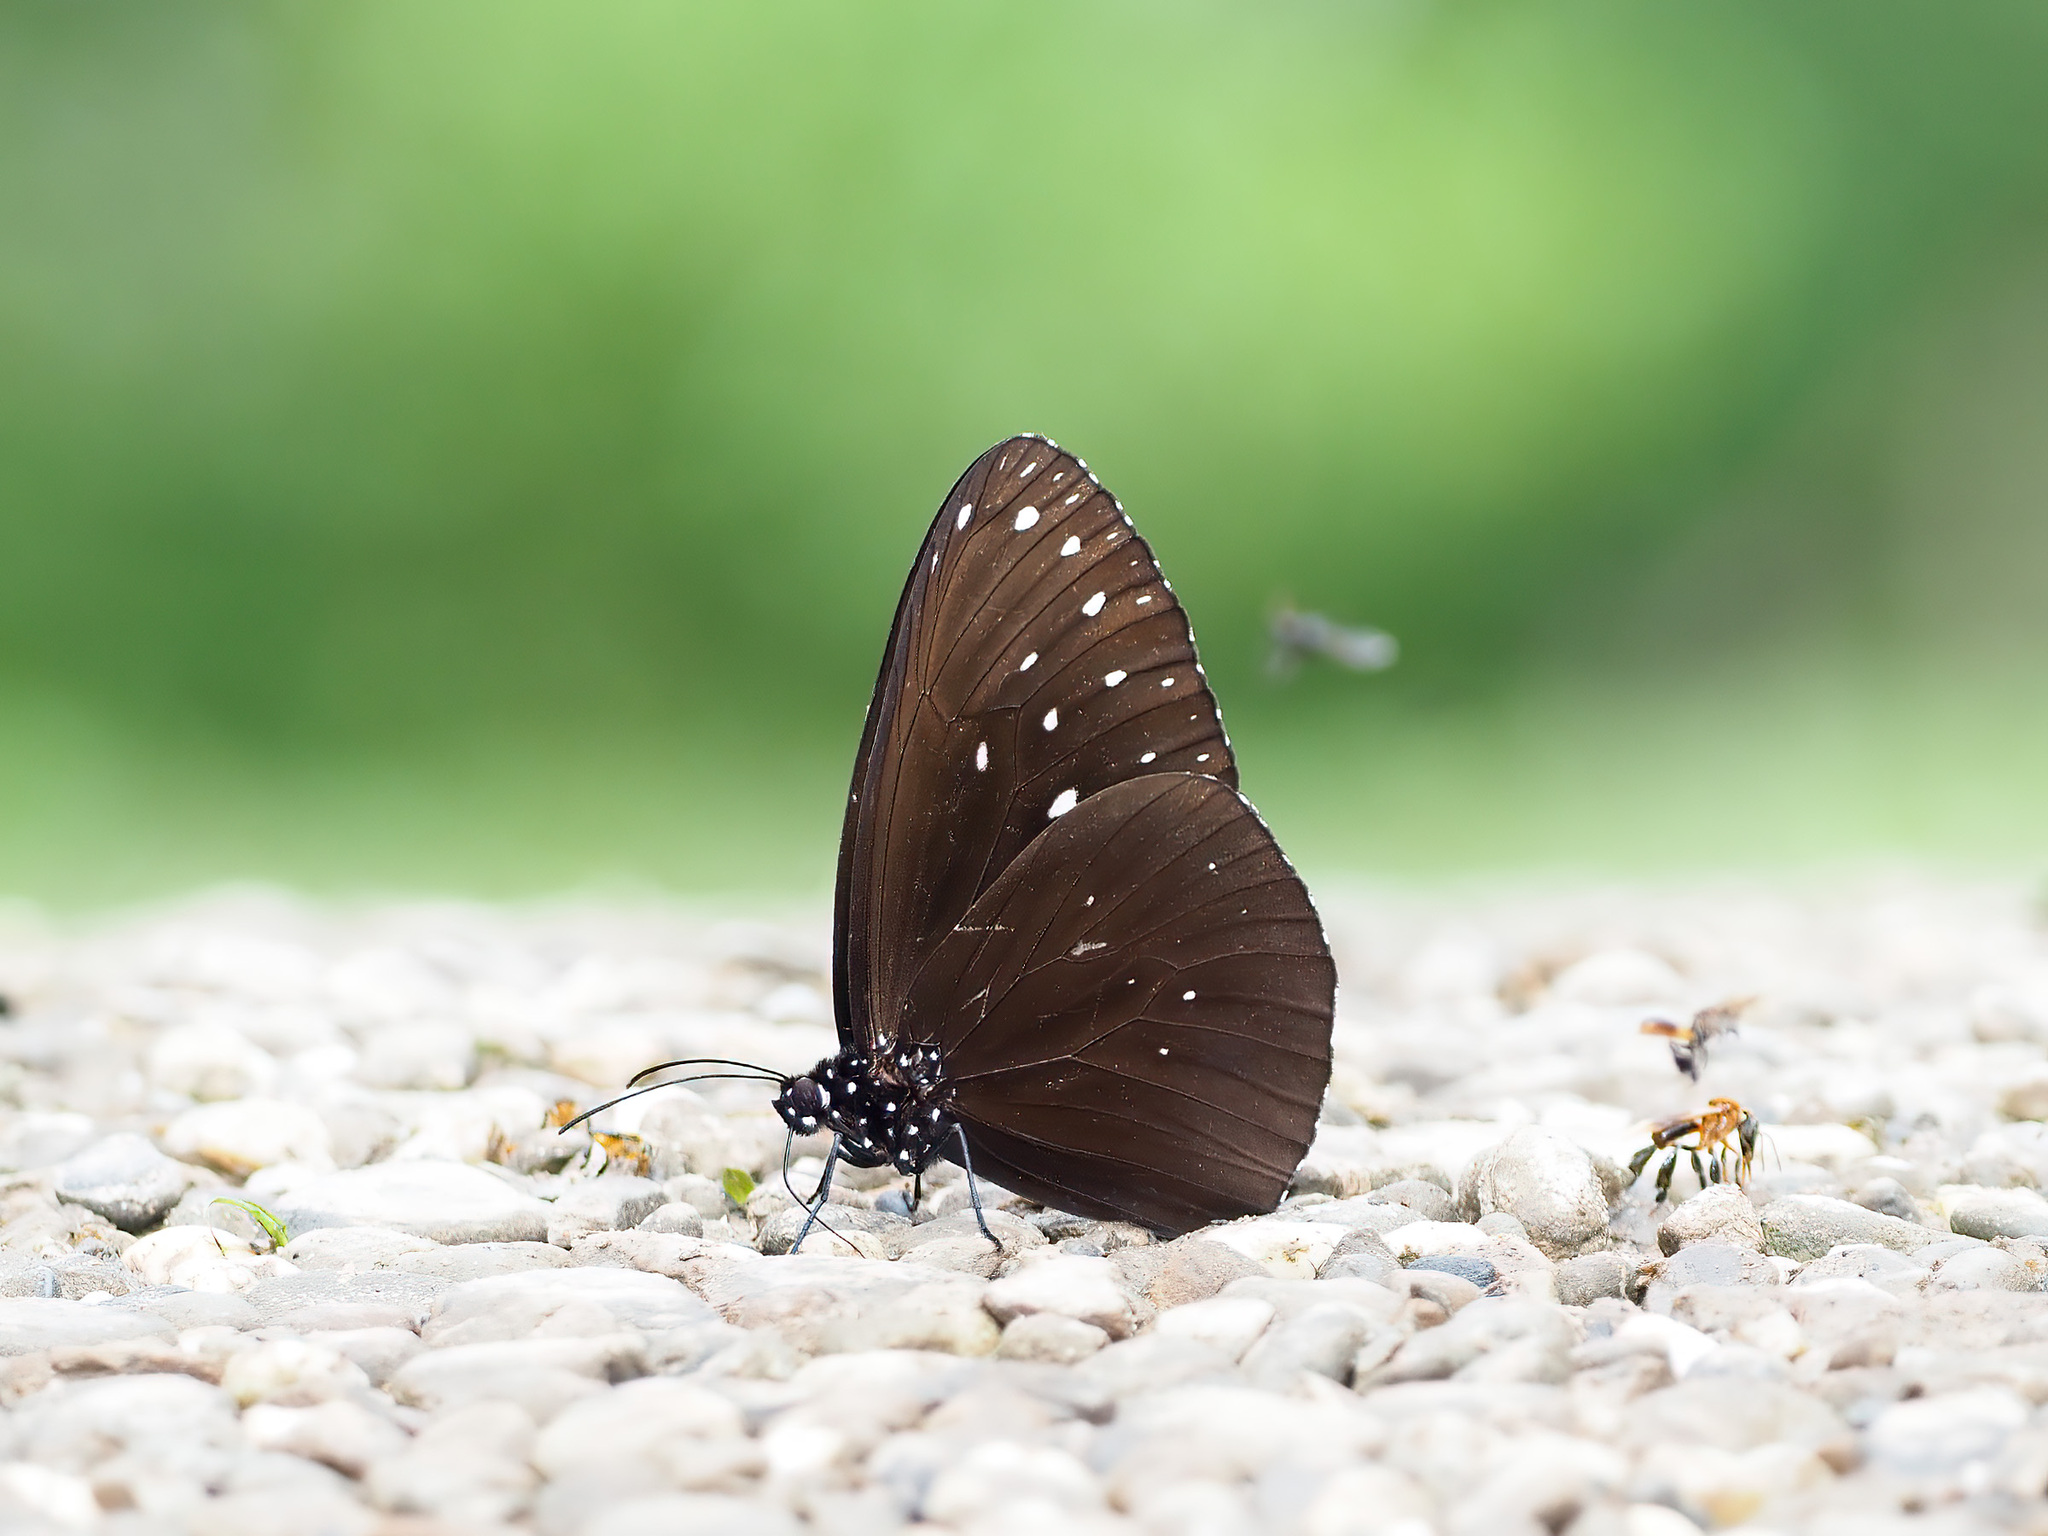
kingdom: Animalia
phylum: Arthropoda
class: Insecta
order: Lepidoptera
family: Nymphalidae
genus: Euploea
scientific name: Euploea camaralzeman
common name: Malayan crow butterfly
